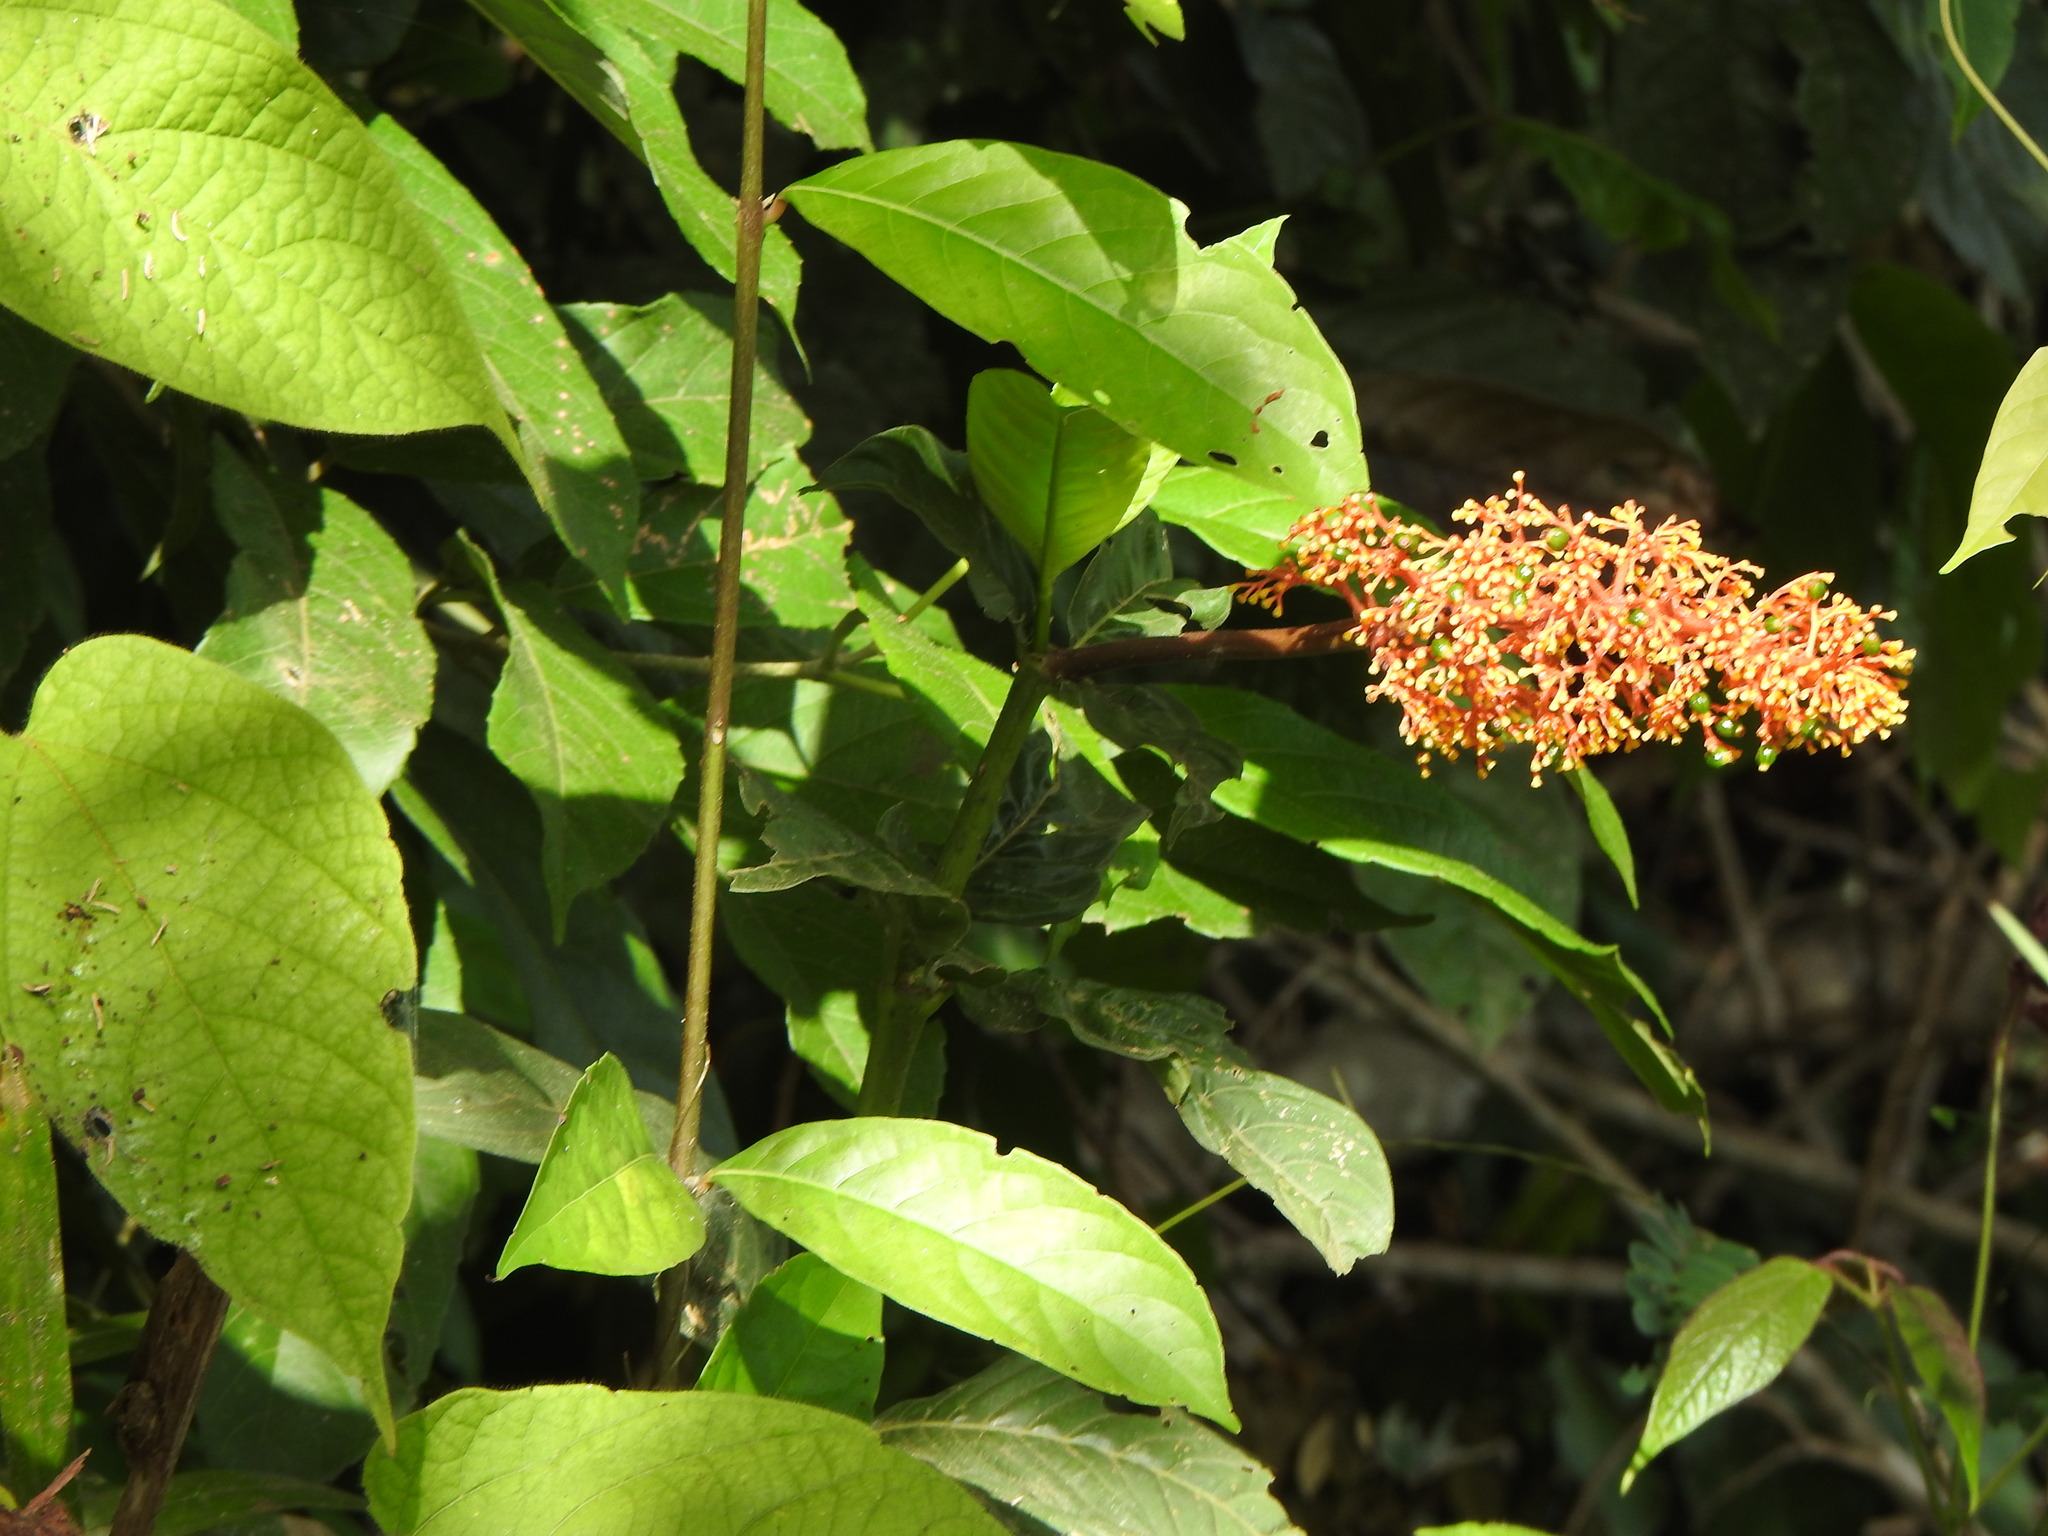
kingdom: Plantae
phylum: Tracheophyta
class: Magnoliopsida
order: Gentianales
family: Rubiaceae
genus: Palicourea
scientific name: Palicourea triphylla
